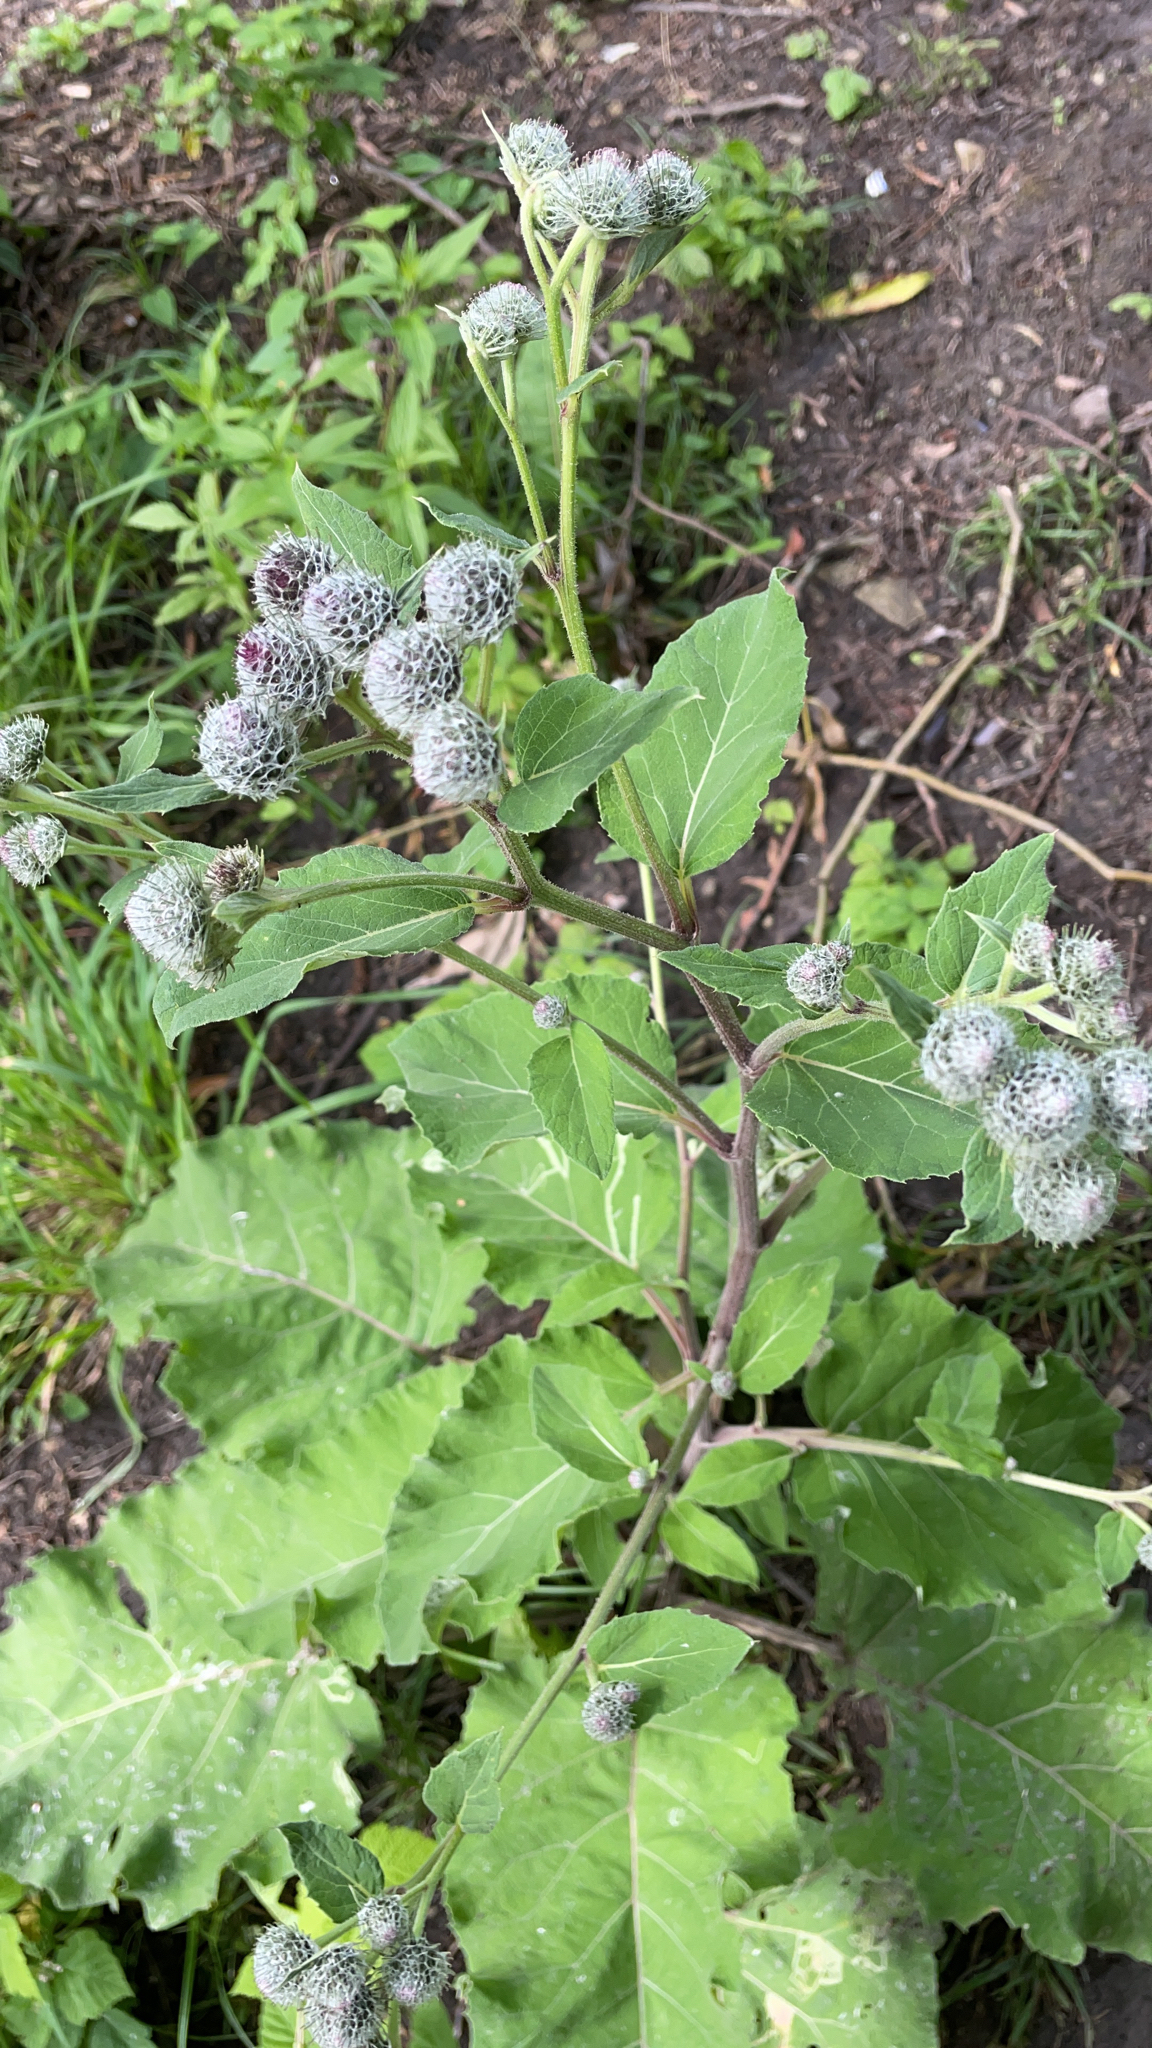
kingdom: Plantae
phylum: Tracheophyta
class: Magnoliopsida
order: Asterales
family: Asteraceae
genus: Arctium
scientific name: Arctium tomentosum
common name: Woolly burdock
